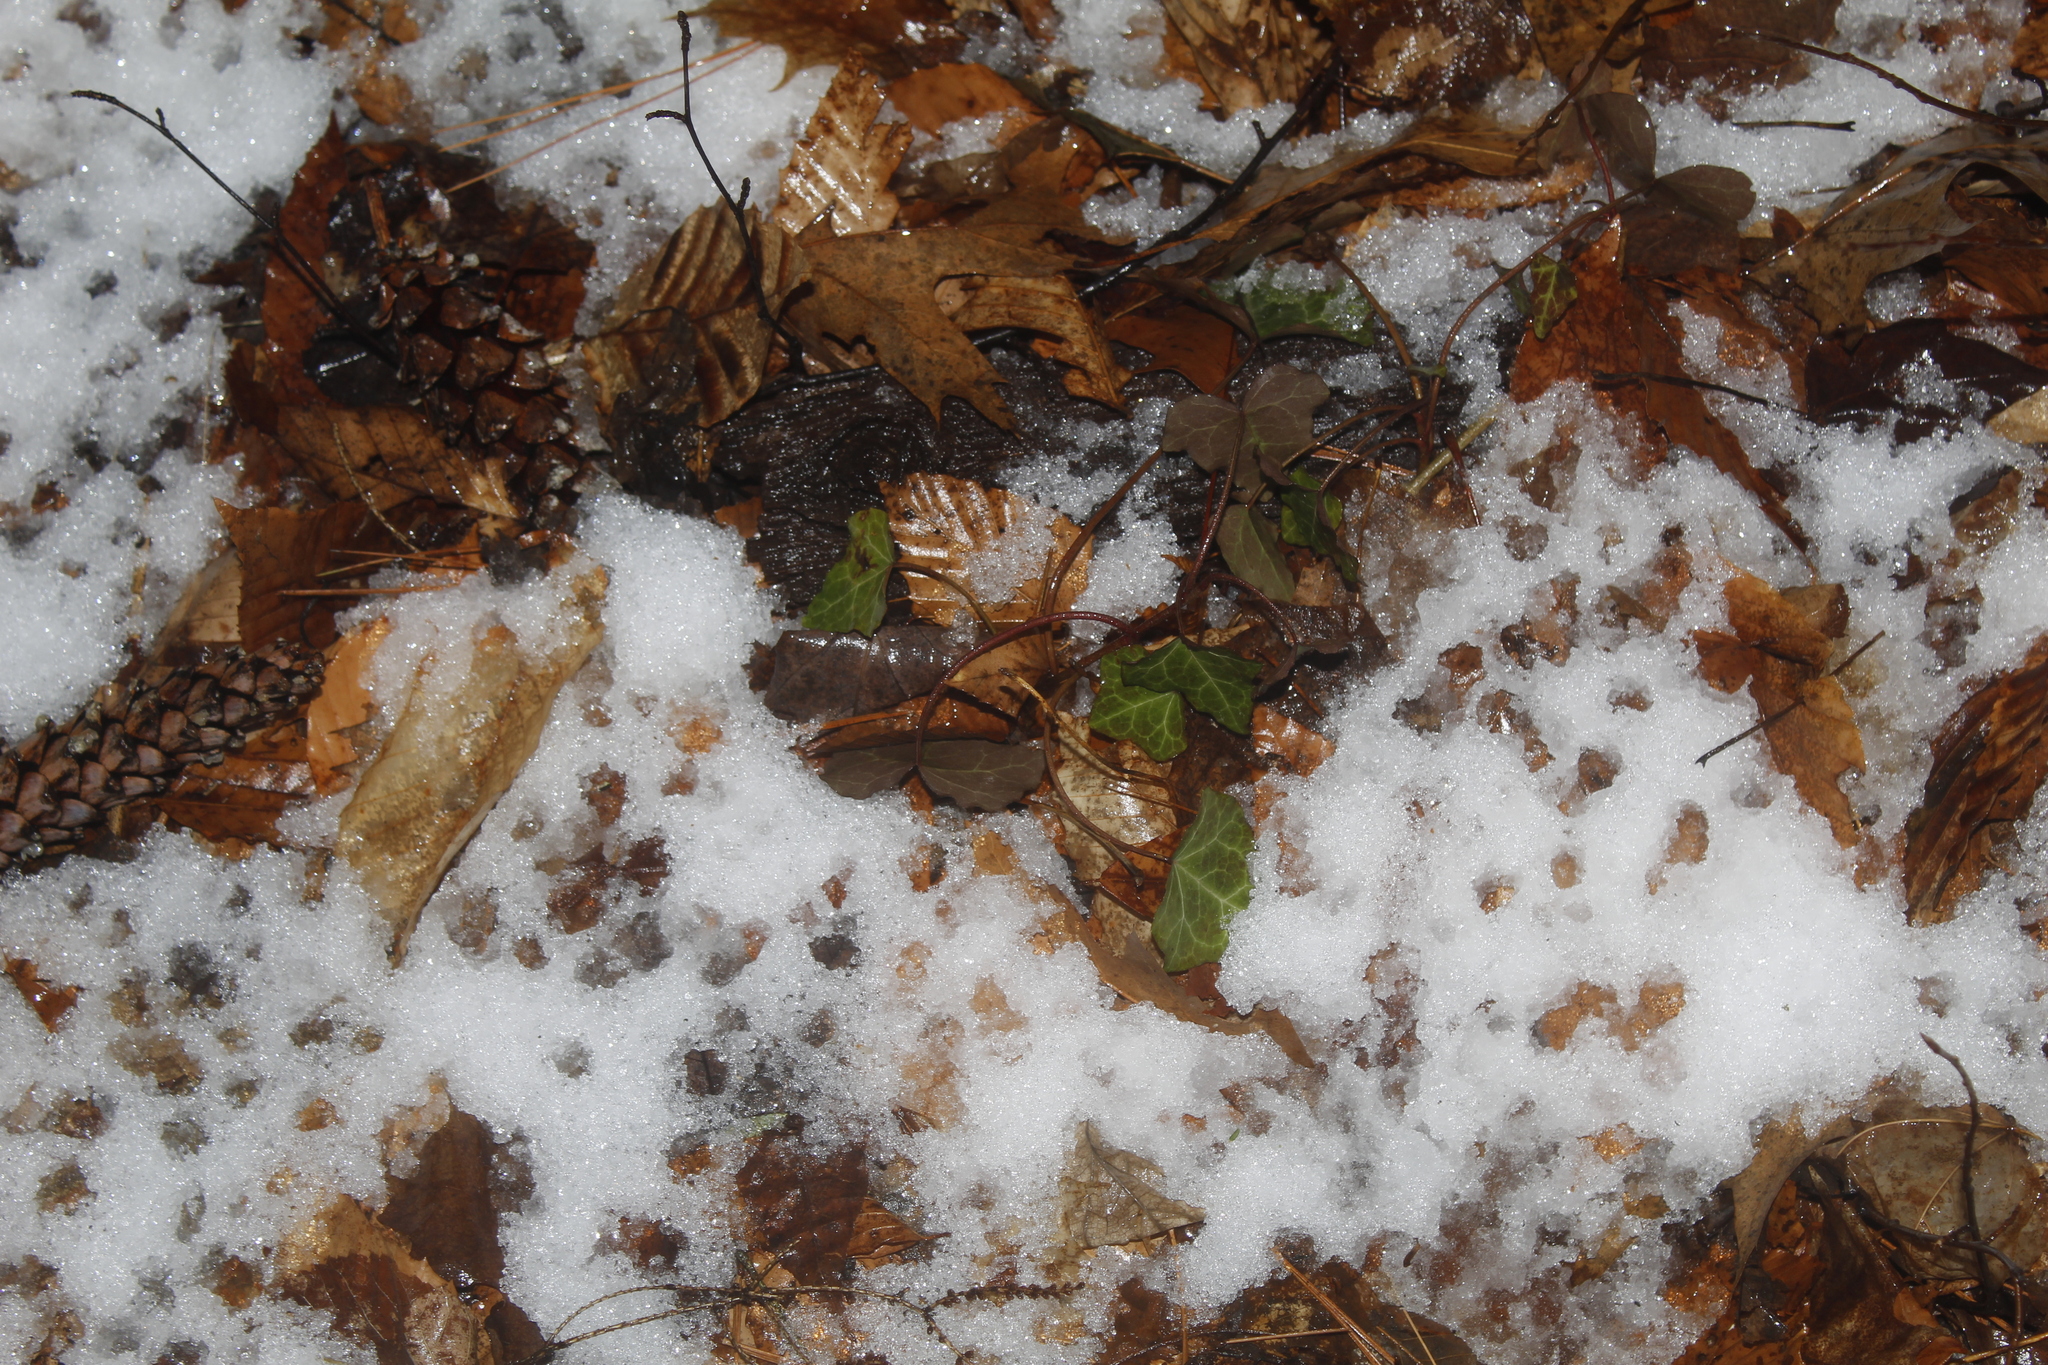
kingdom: Plantae
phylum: Tracheophyta
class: Magnoliopsida
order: Apiales
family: Araliaceae
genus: Hedera
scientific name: Hedera helix
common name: Ivy
